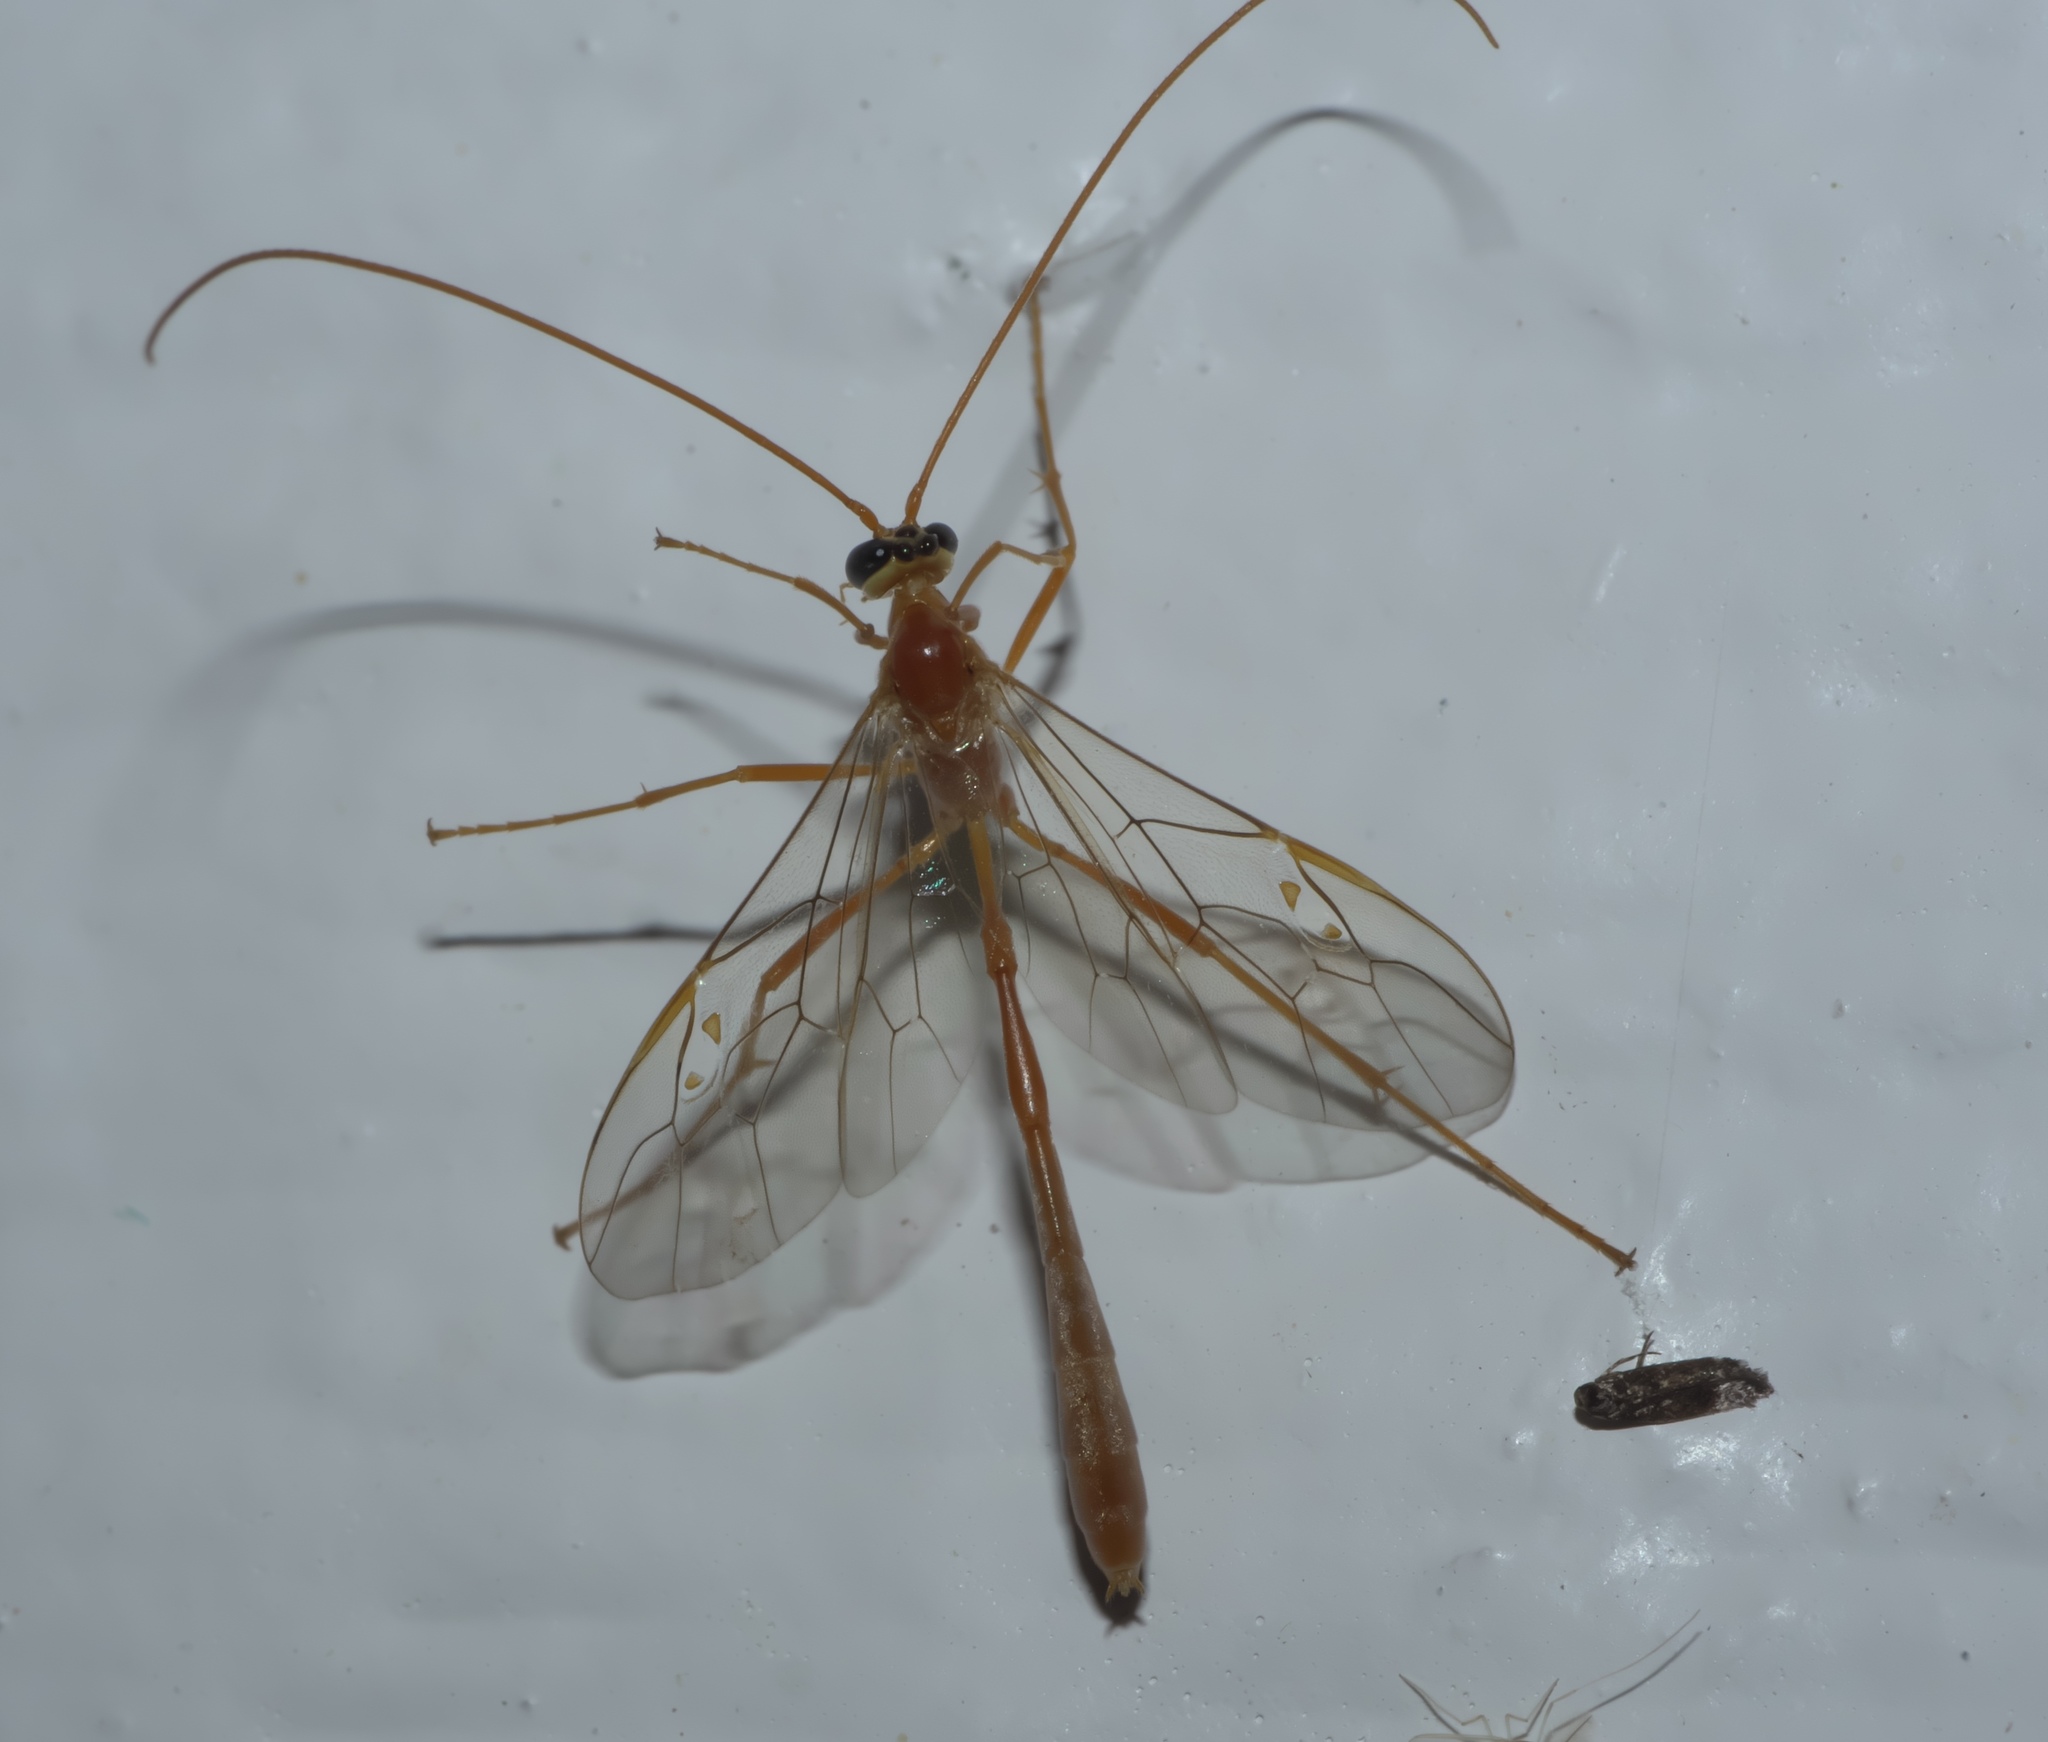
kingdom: Animalia
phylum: Arthropoda
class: Insecta
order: Hymenoptera
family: Ichneumonidae
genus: Enicospilus
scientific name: Enicospilus purgatus
